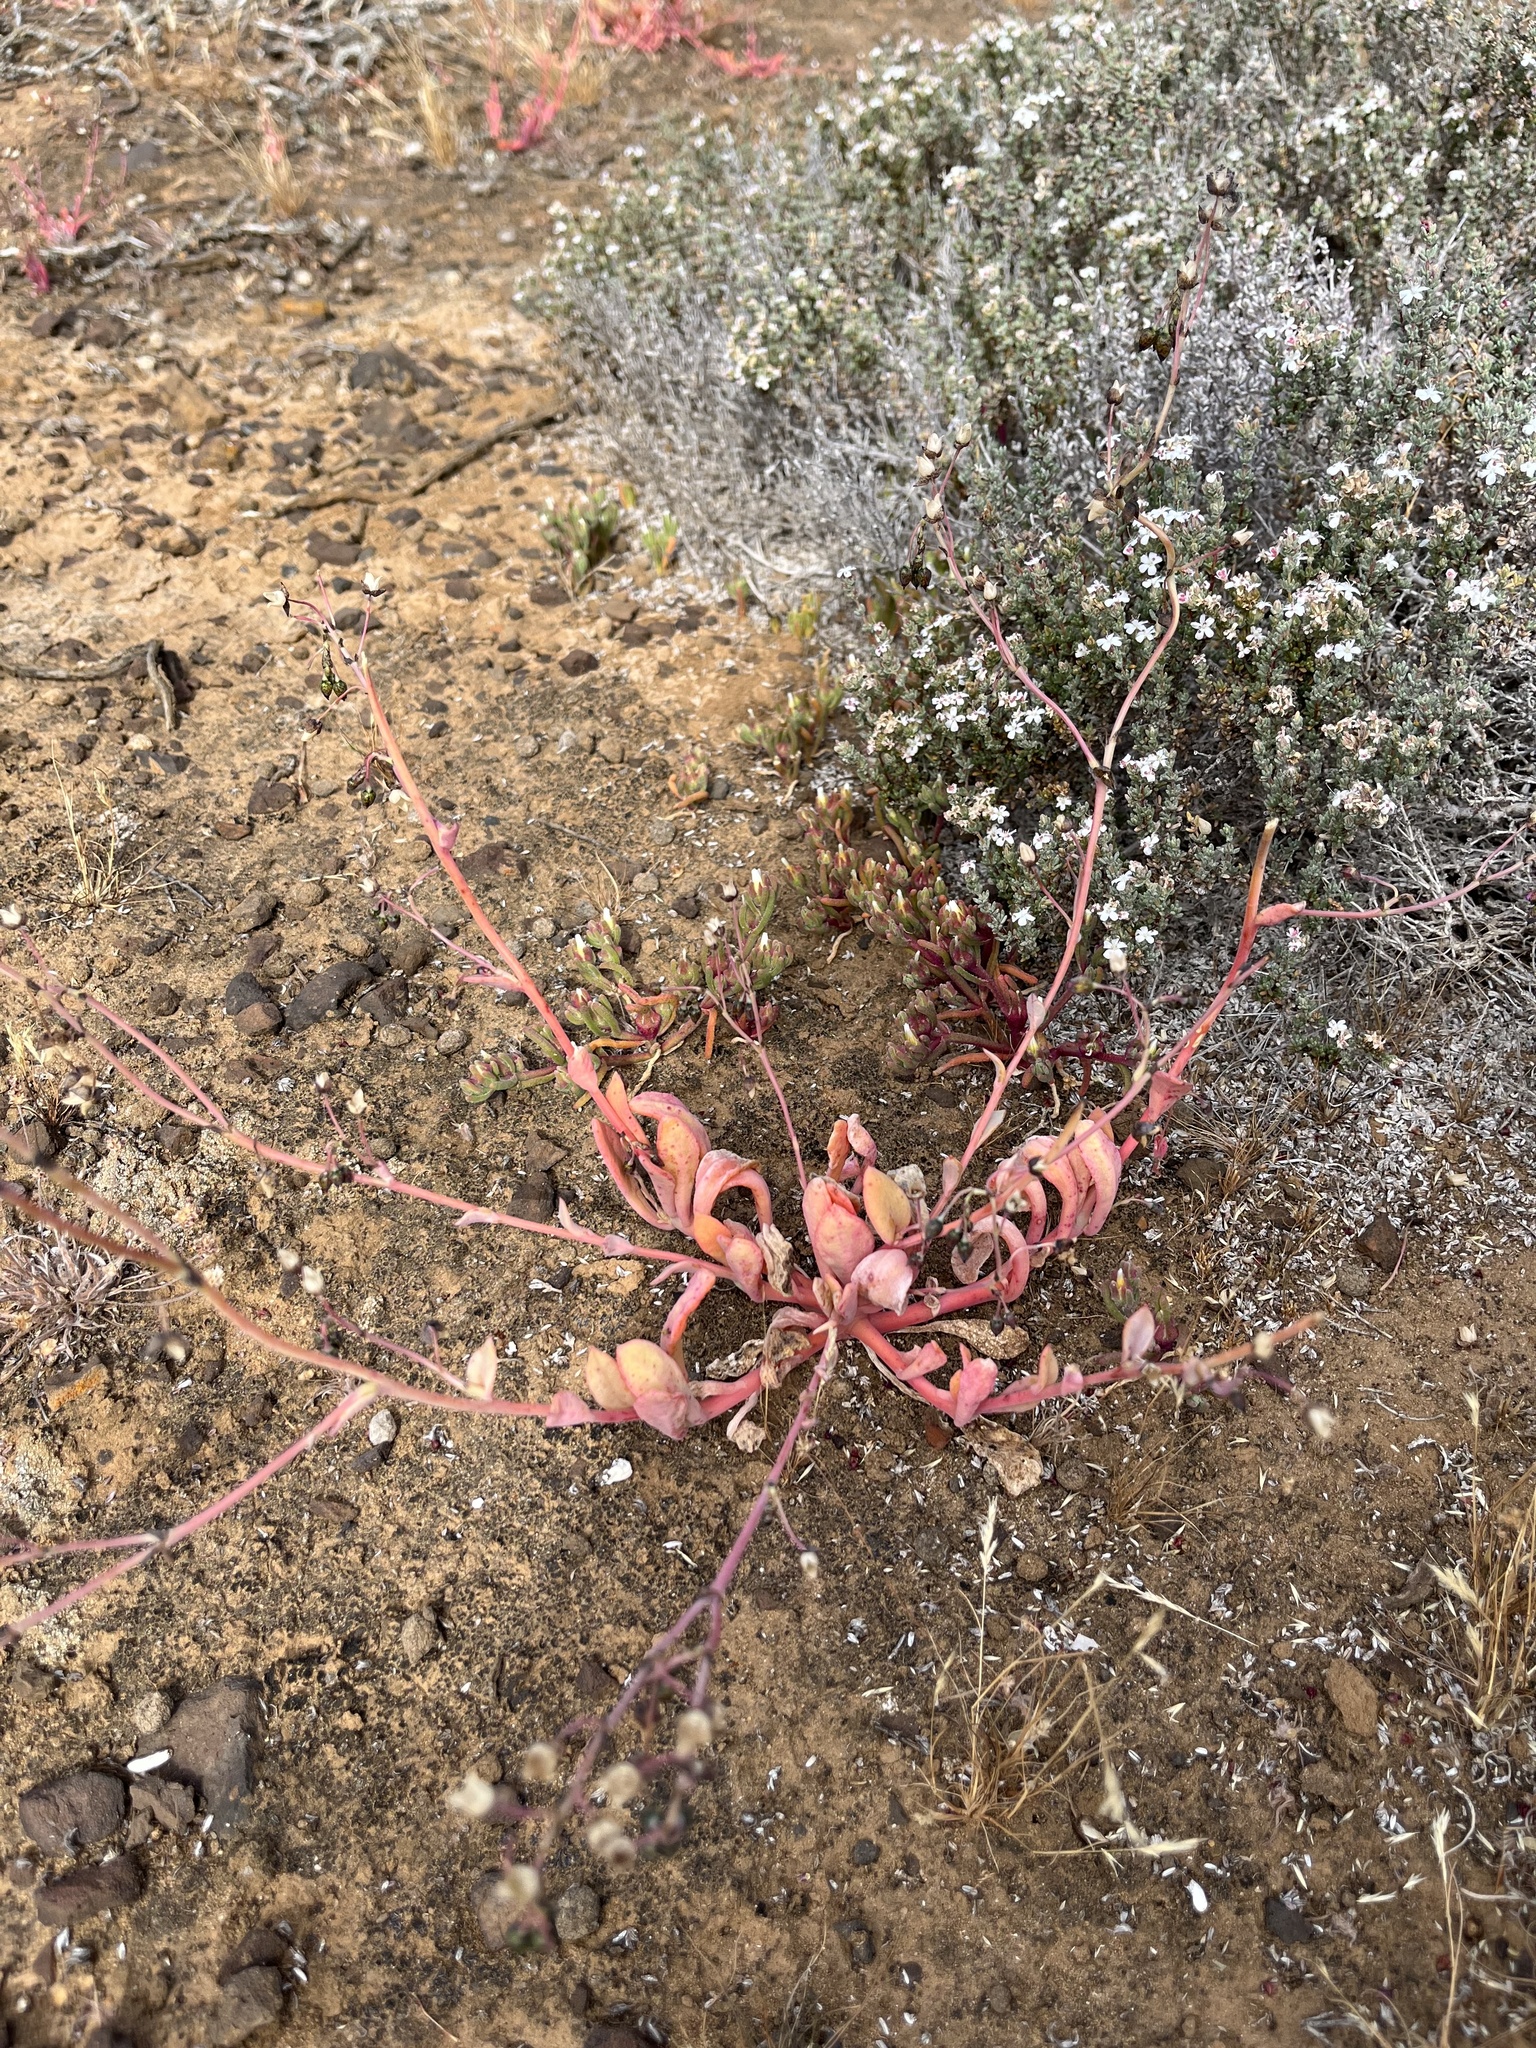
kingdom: Plantae
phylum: Tracheophyta
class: Magnoliopsida
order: Caryophyllales
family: Montiaceae
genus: Cistanthe
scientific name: Cistanthe maritima
